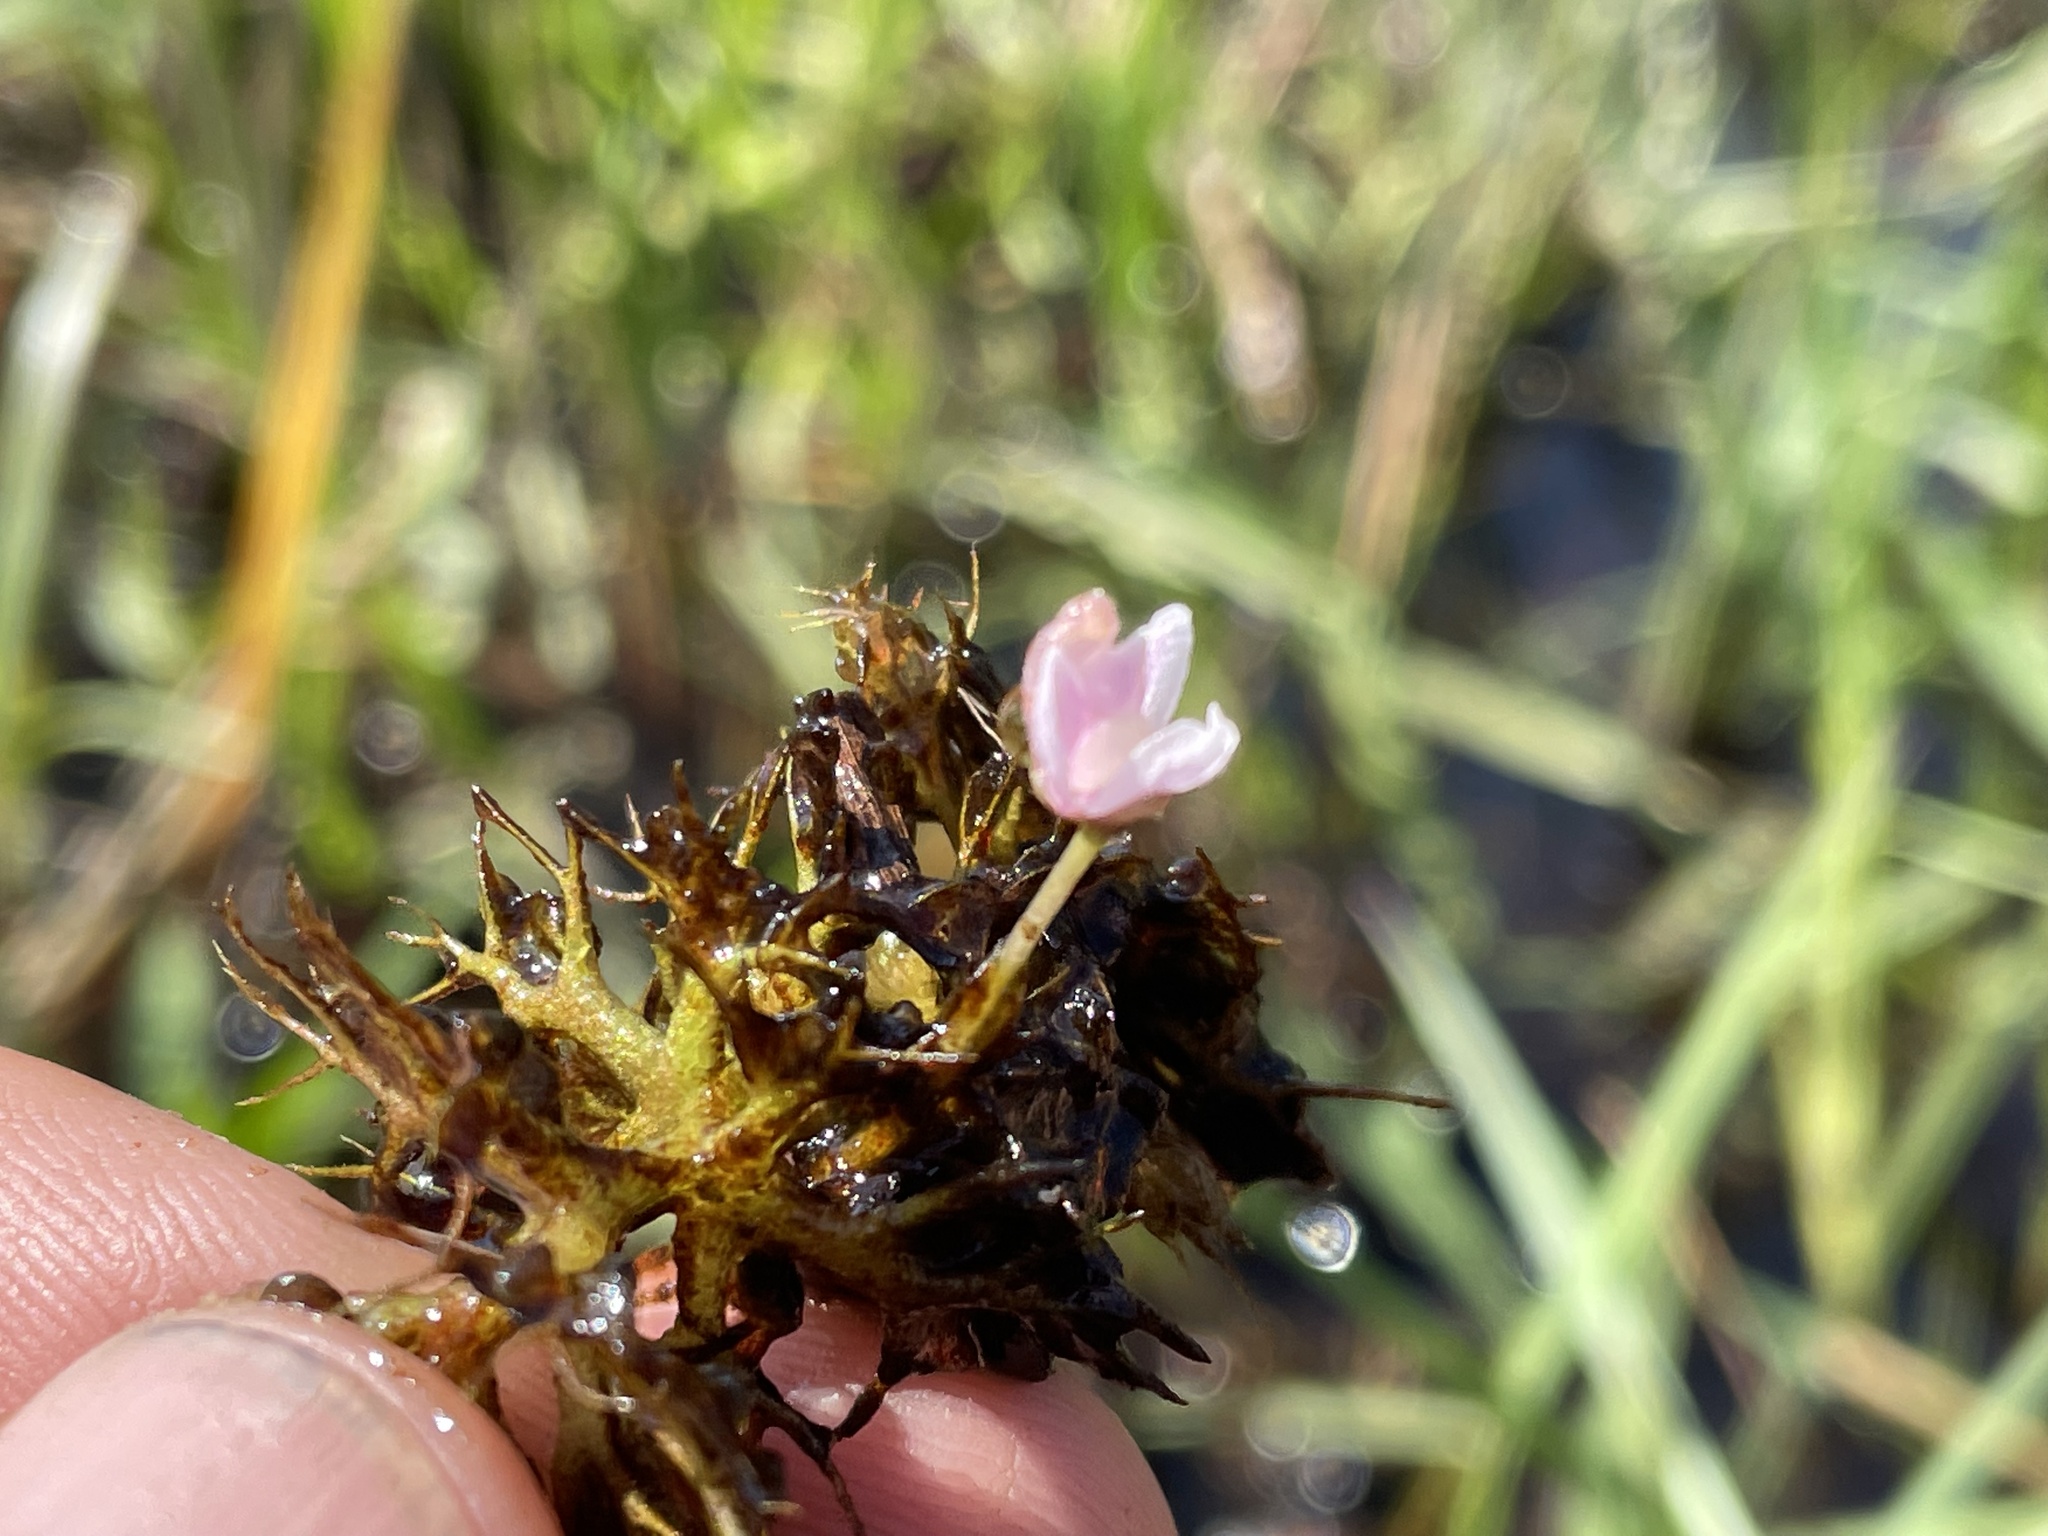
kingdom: Plantae
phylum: Tracheophyta
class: Magnoliopsida
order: Lamiales
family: Lentibulariaceae
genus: Utricularia
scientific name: Utricularia raynalii
